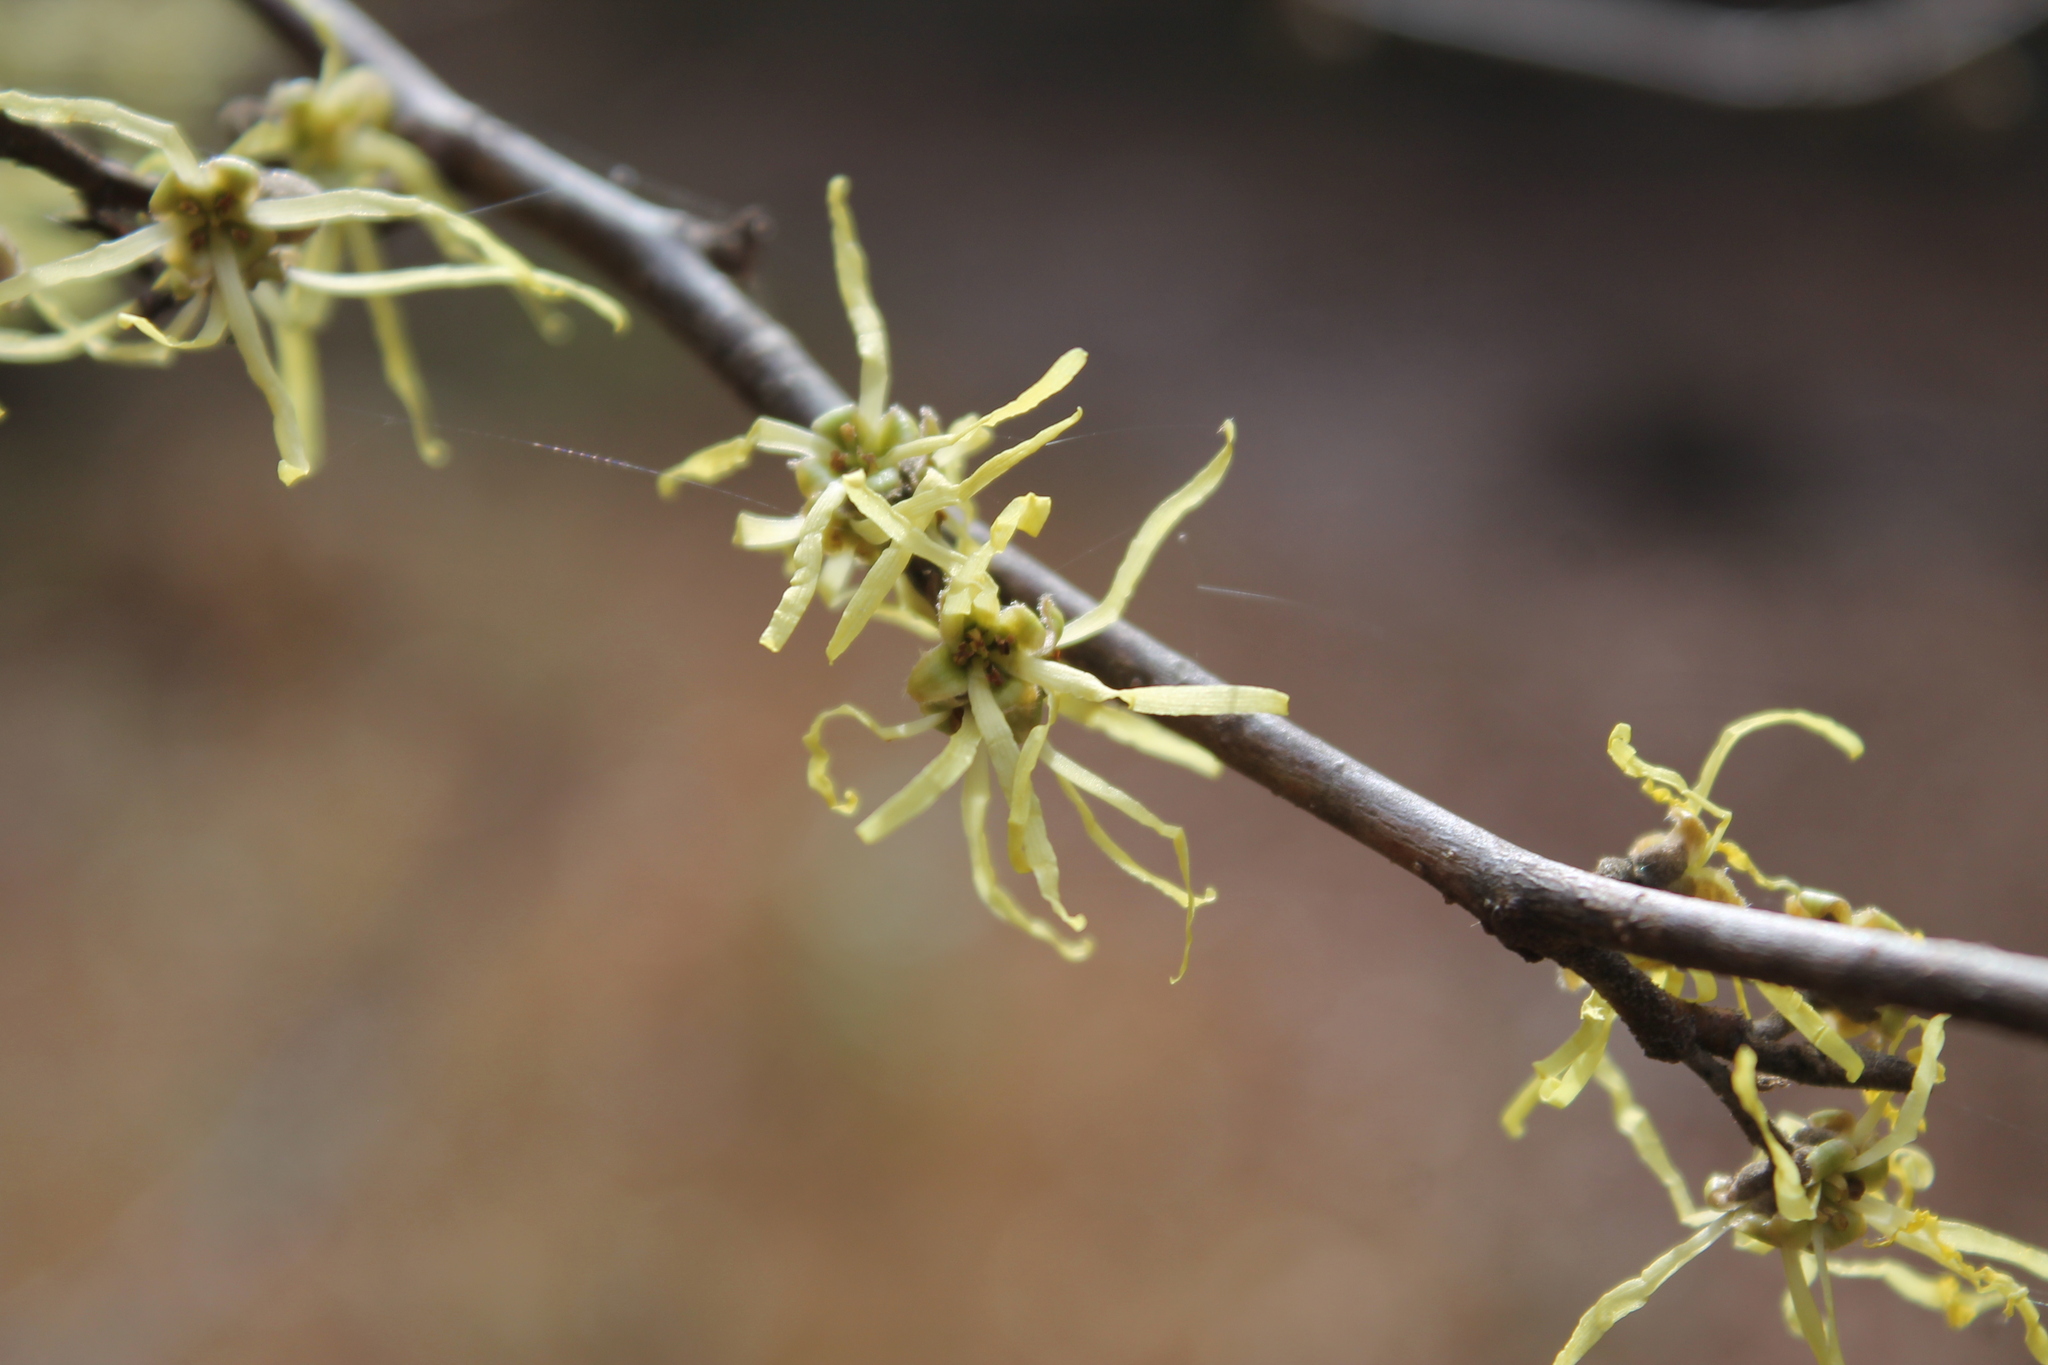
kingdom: Plantae
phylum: Tracheophyta
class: Magnoliopsida
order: Saxifragales
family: Hamamelidaceae
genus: Hamamelis
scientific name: Hamamelis virginiana
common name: Witch-hazel
